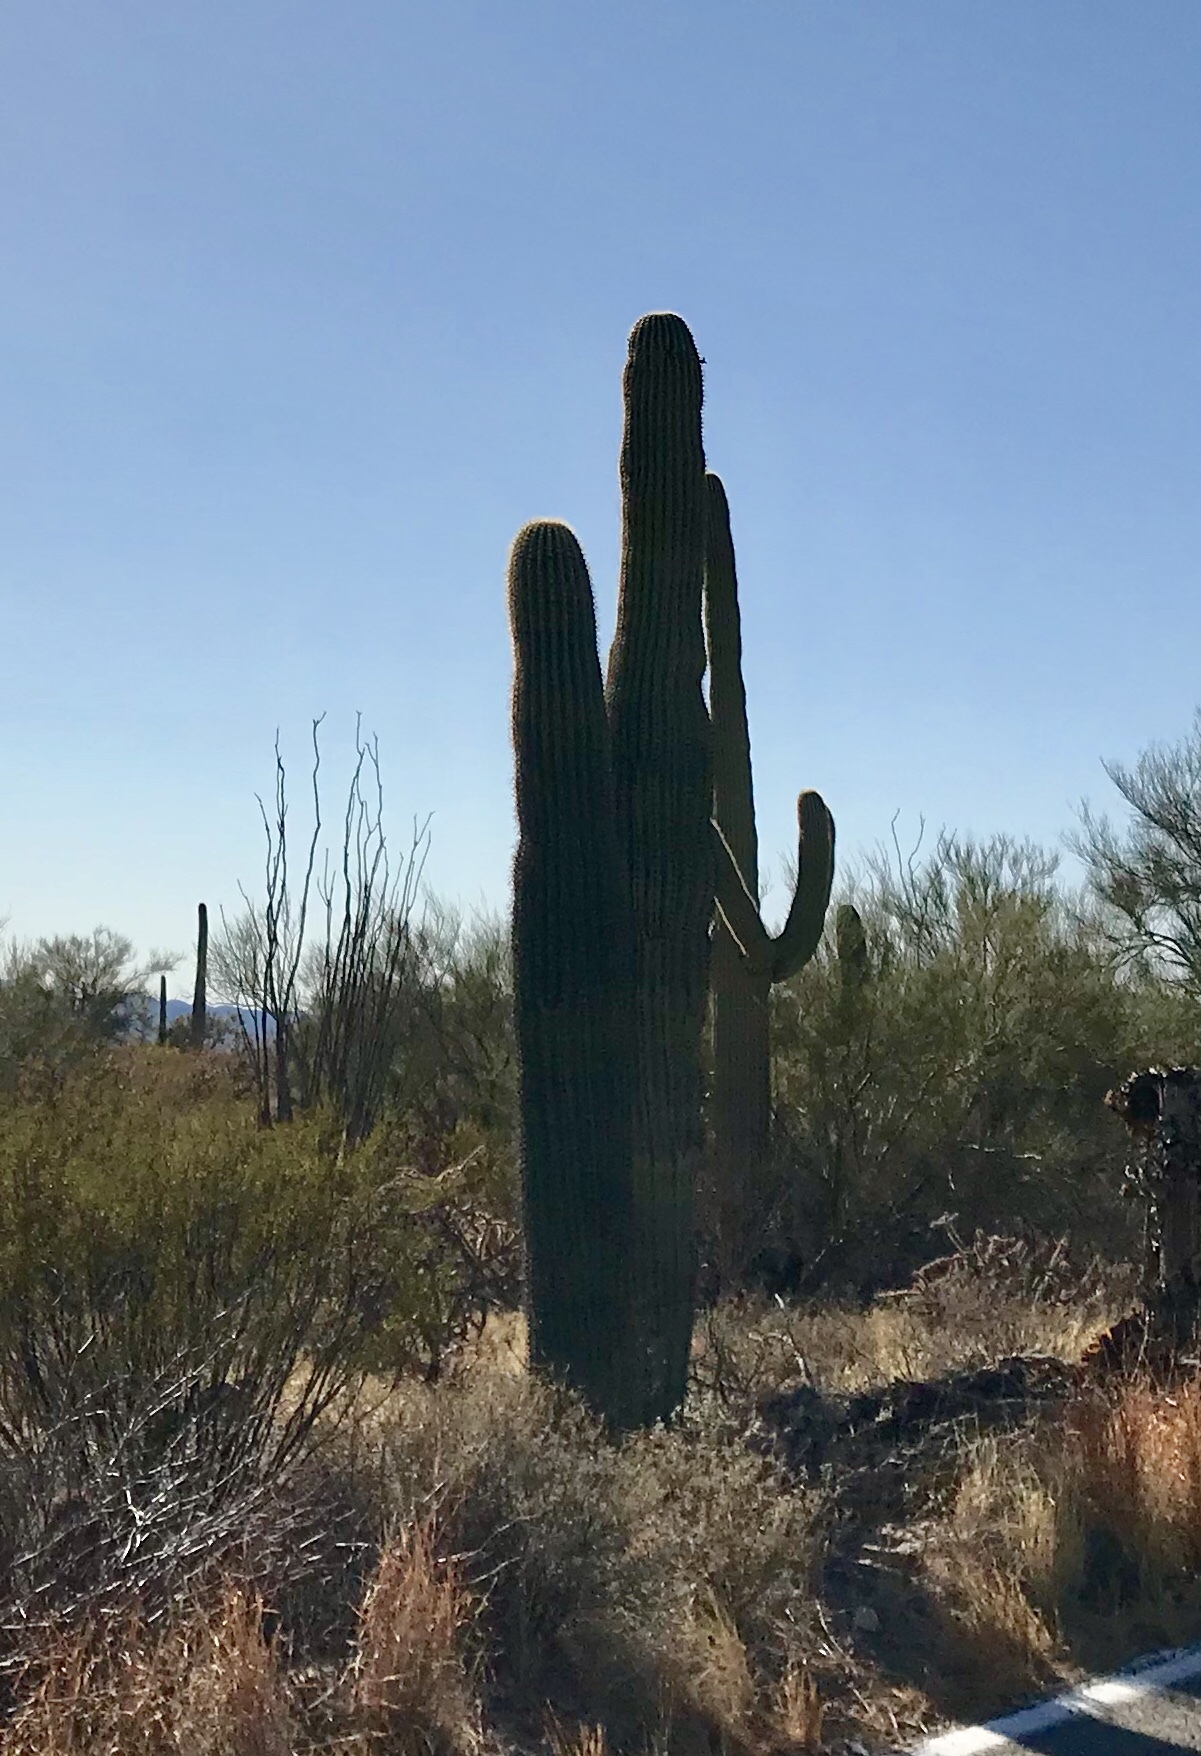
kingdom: Plantae
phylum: Tracheophyta
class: Magnoliopsida
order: Caryophyllales
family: Cactaceae
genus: Carnegiea
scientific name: Carnegiea gigantea
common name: Saguaro
